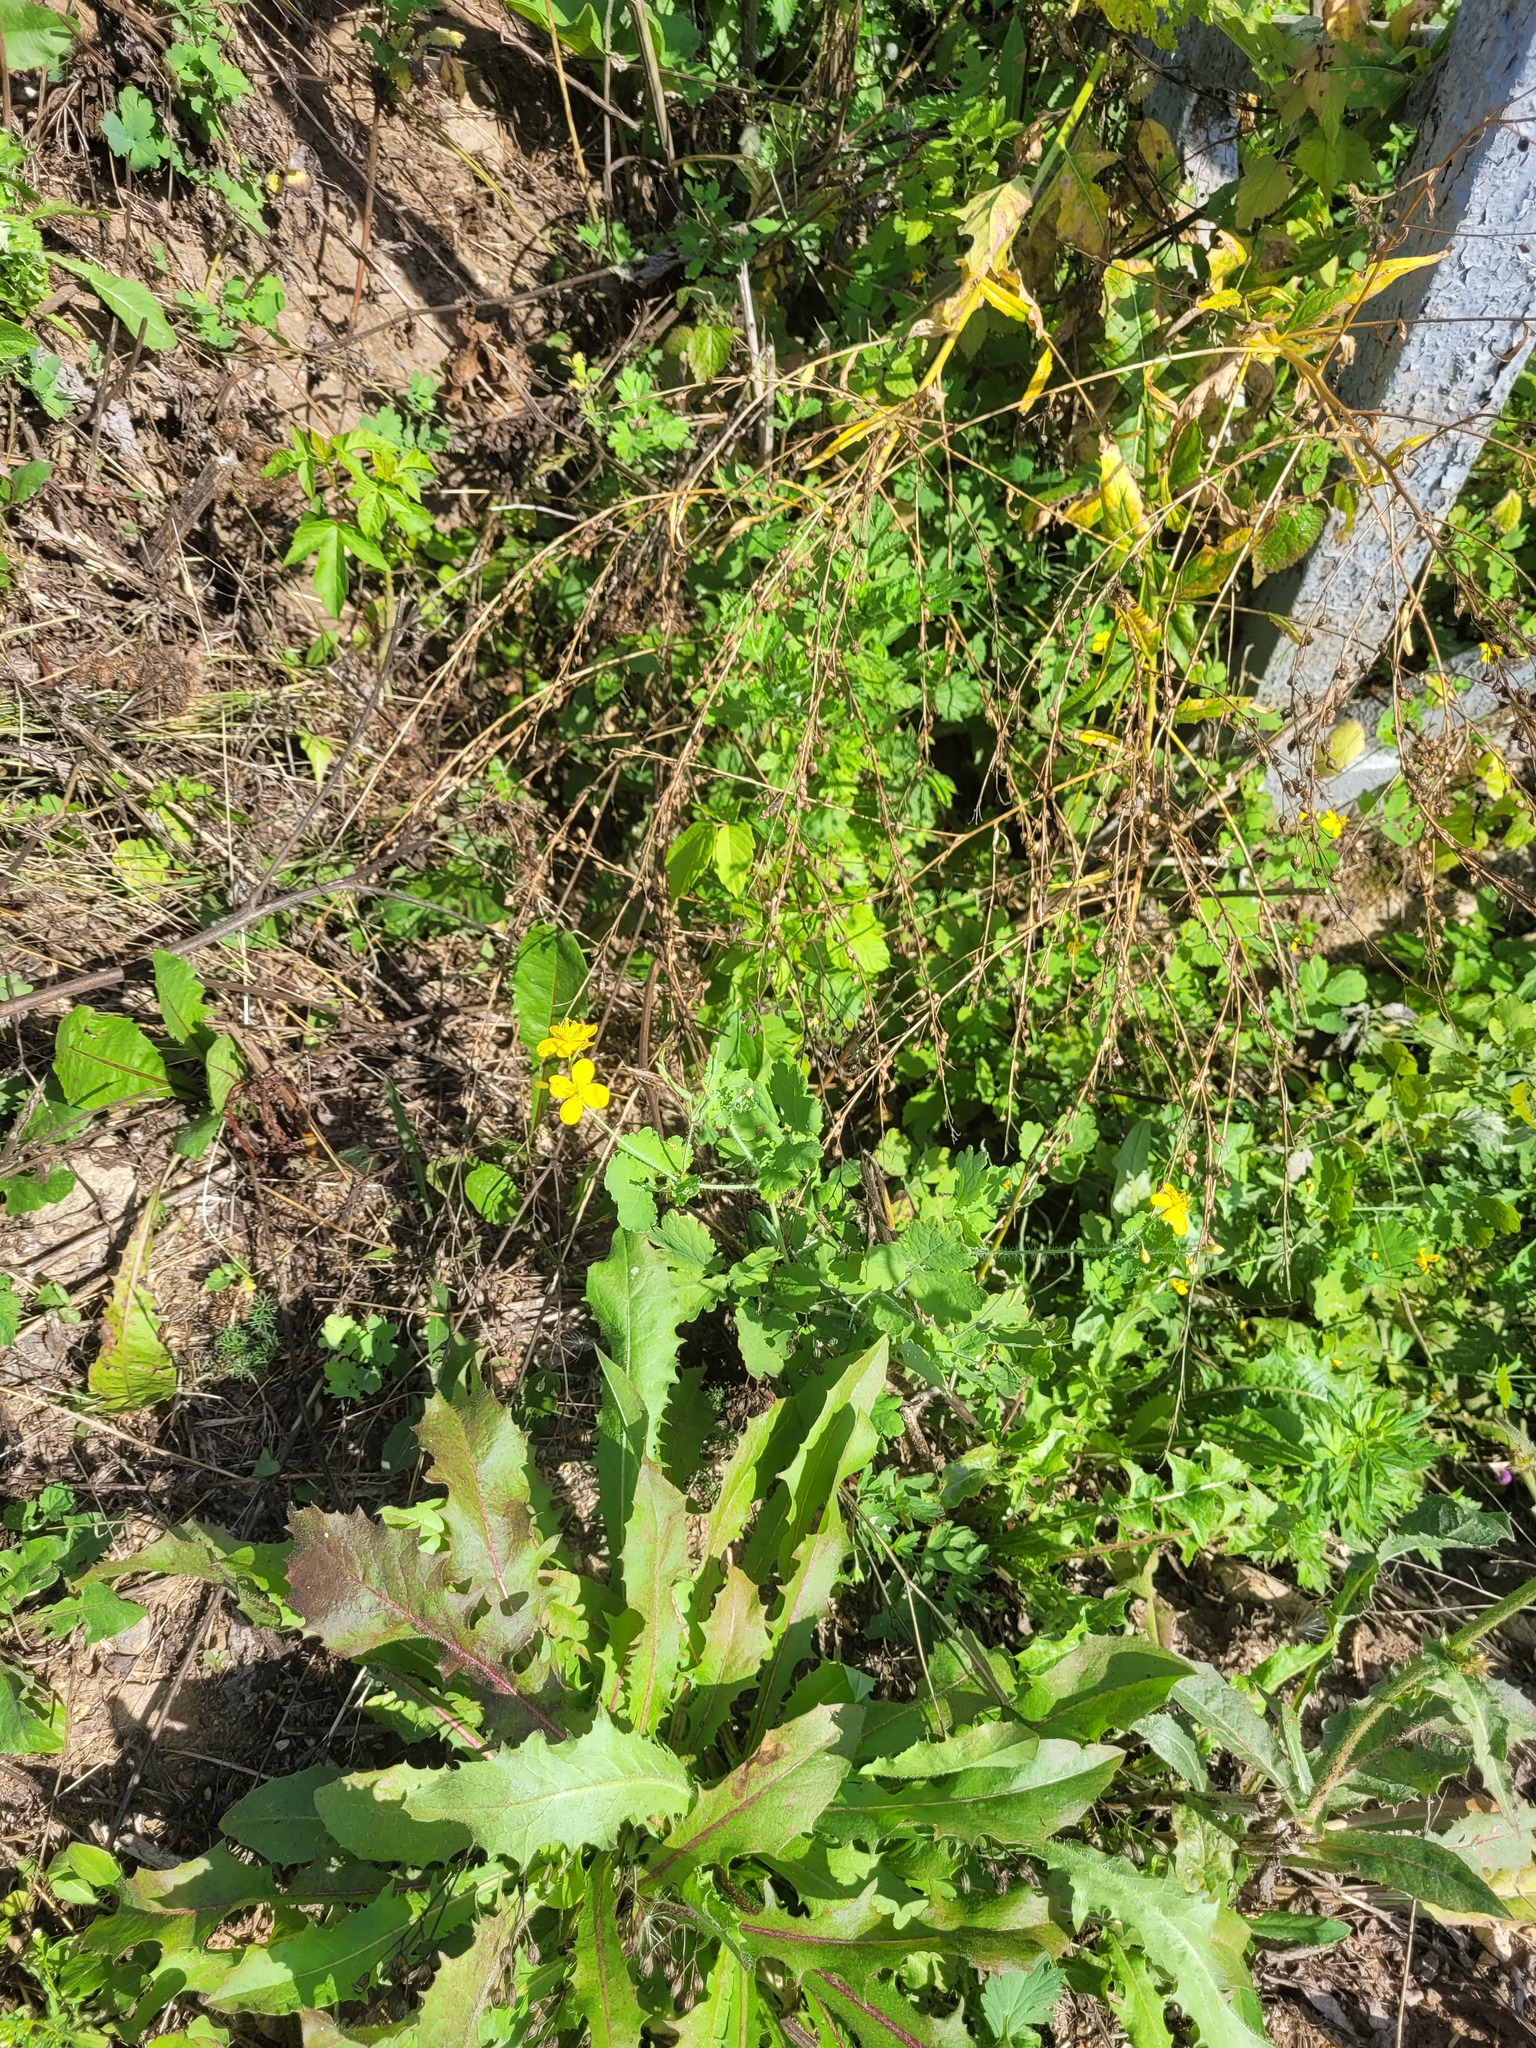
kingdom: Plantae
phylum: Tracheophyta
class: Magnoliopsida
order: Ranunculales
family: Papaveraceae
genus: Chelidonium
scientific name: Chelidonium majus
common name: Greater celandine
